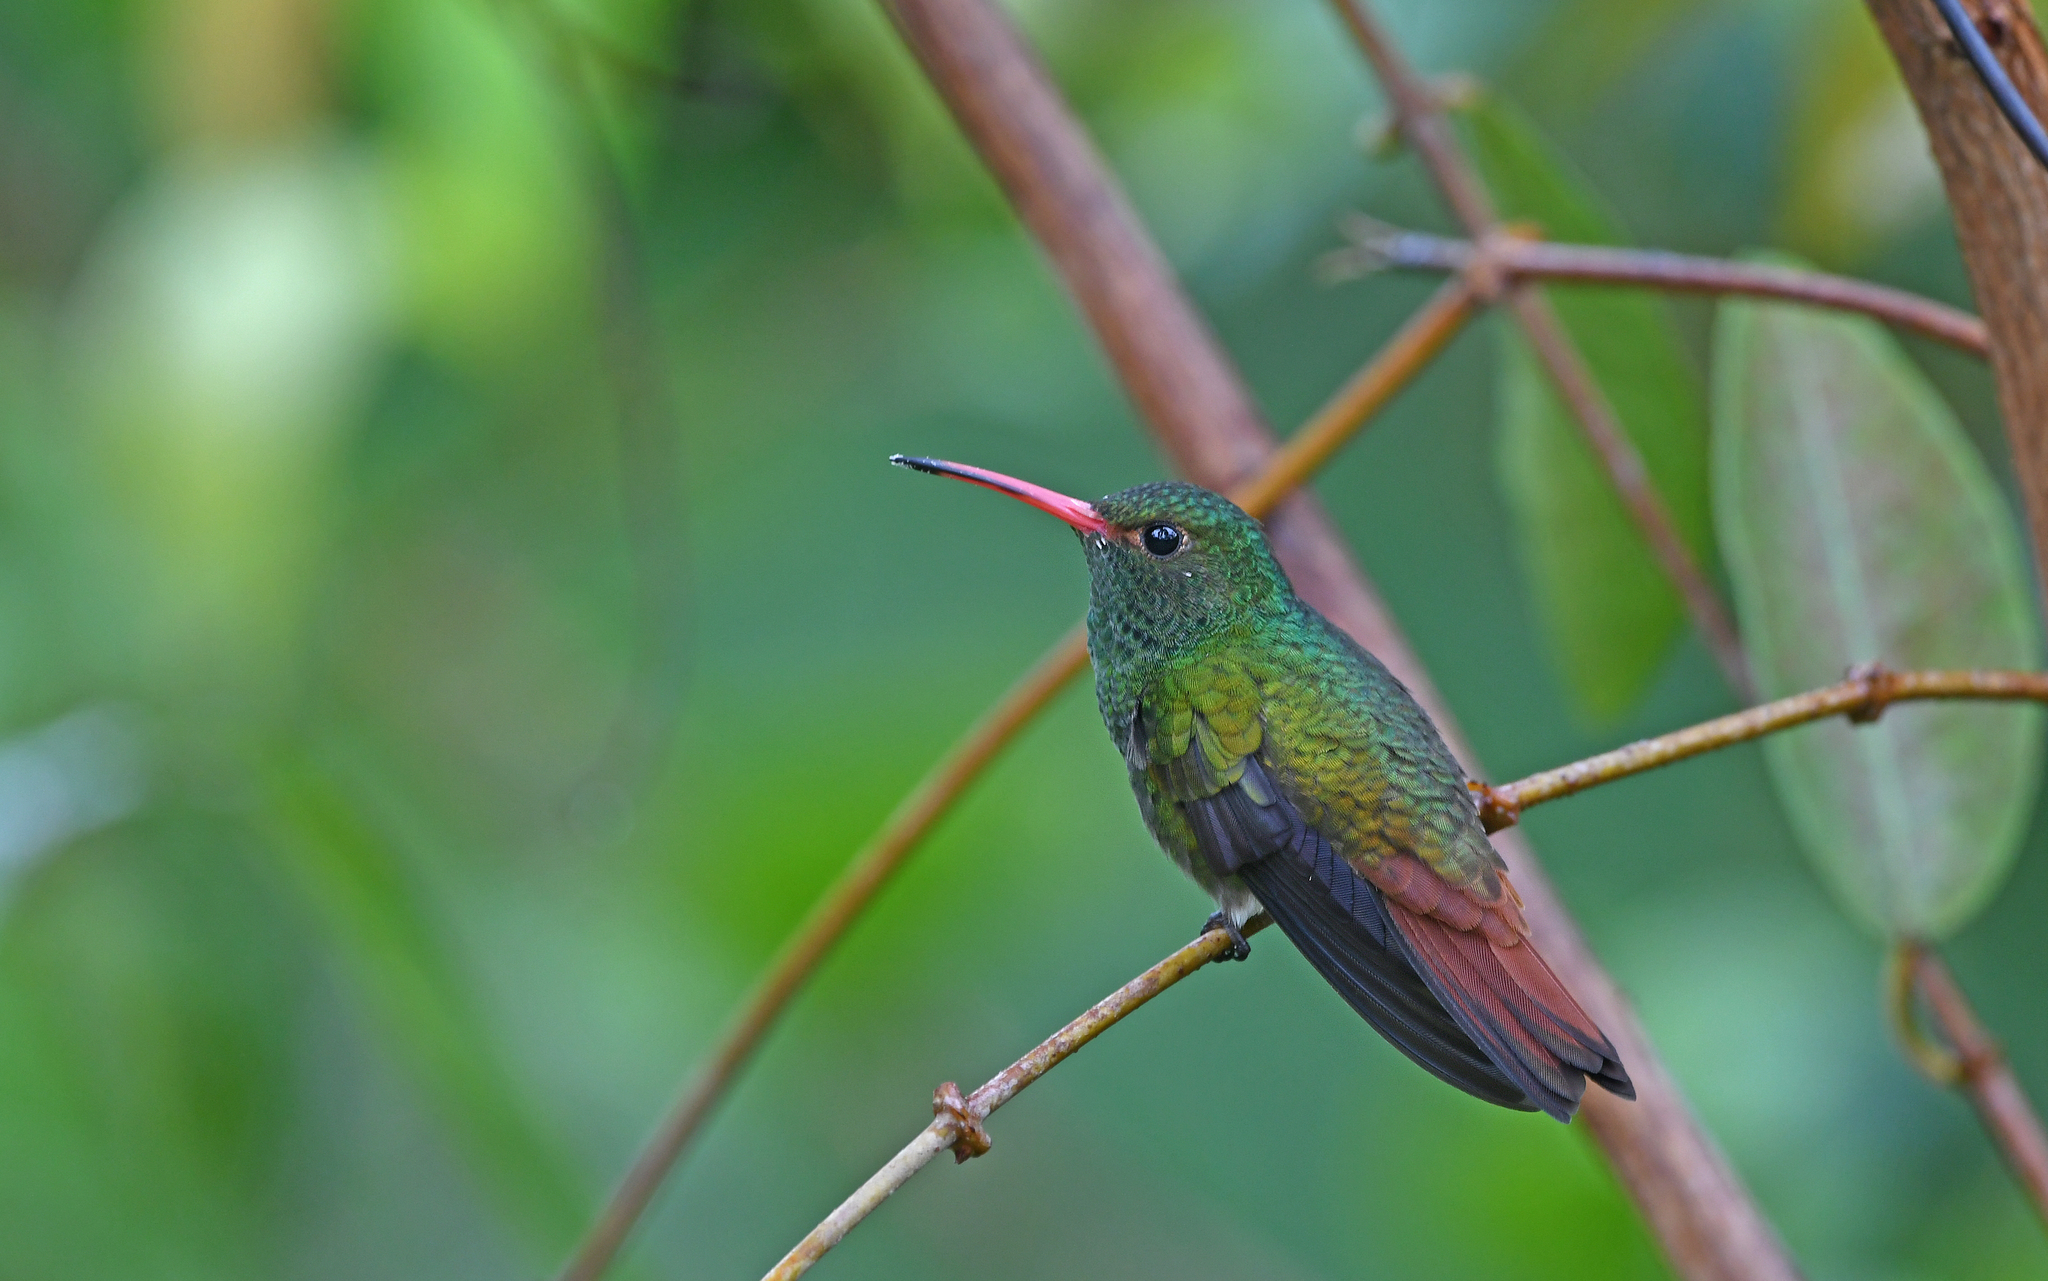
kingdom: Animalia
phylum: Chordata
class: Aves
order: Apodiformes
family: Trochilidae
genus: Amazilia
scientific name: Amazilia tzacatl
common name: Rufous-tailed hummingbird
